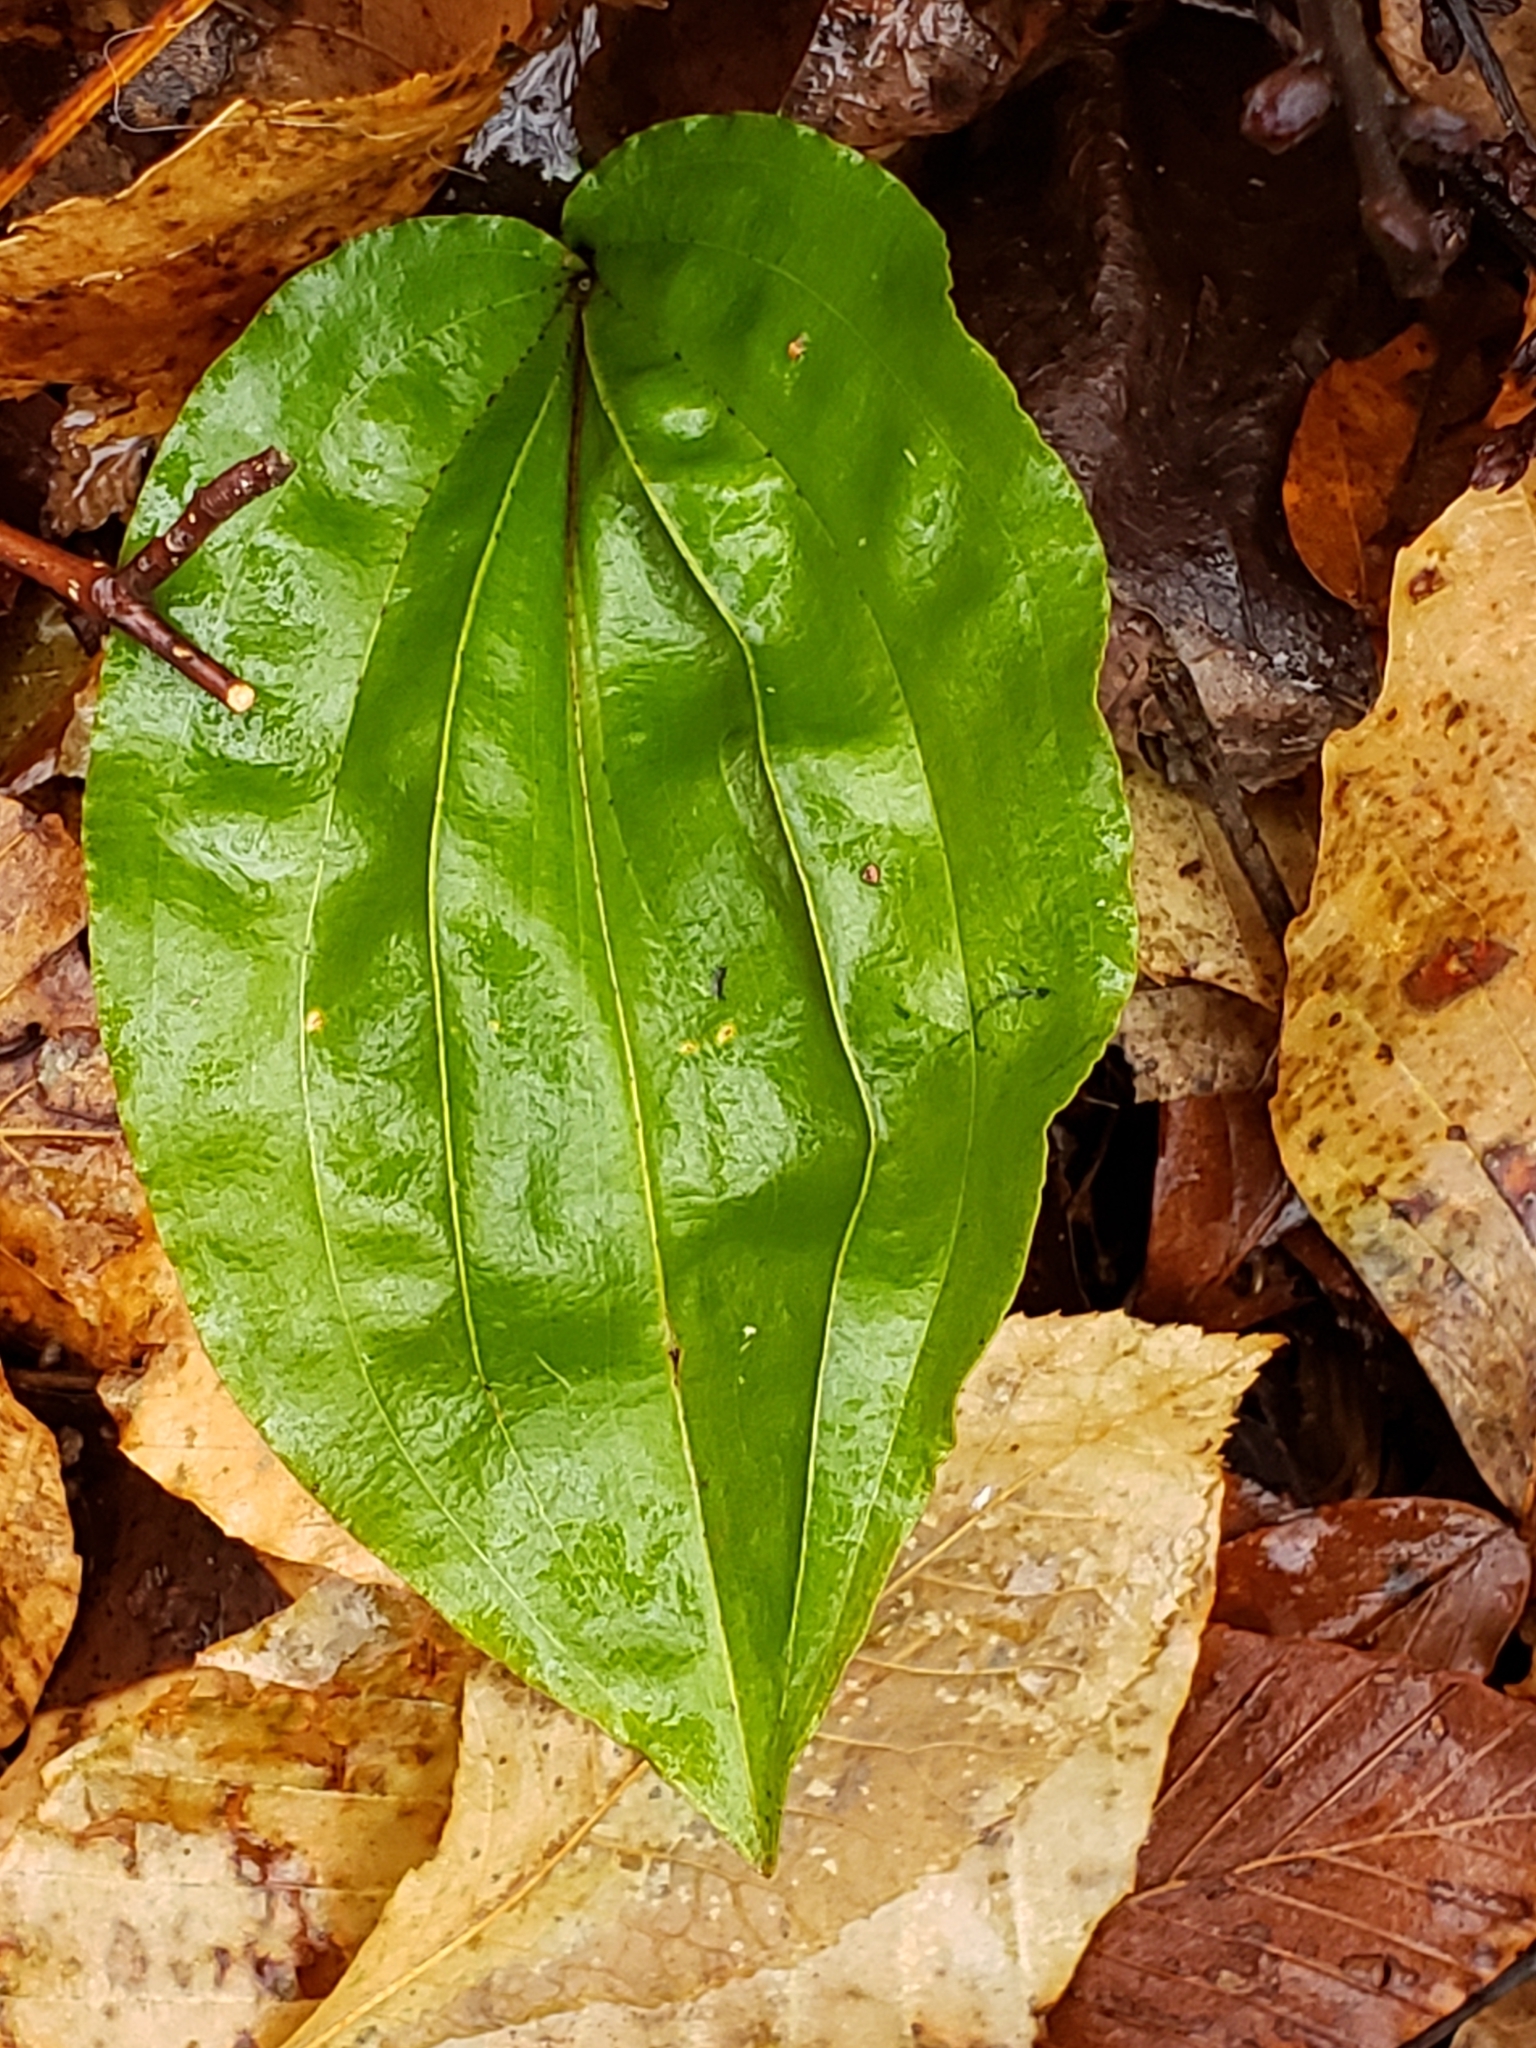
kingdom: Plantae
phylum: Tracheophyta
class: Liliopsida
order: Asparagales
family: Orchidaceae
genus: Tipularia
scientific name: Tipularia discolor
